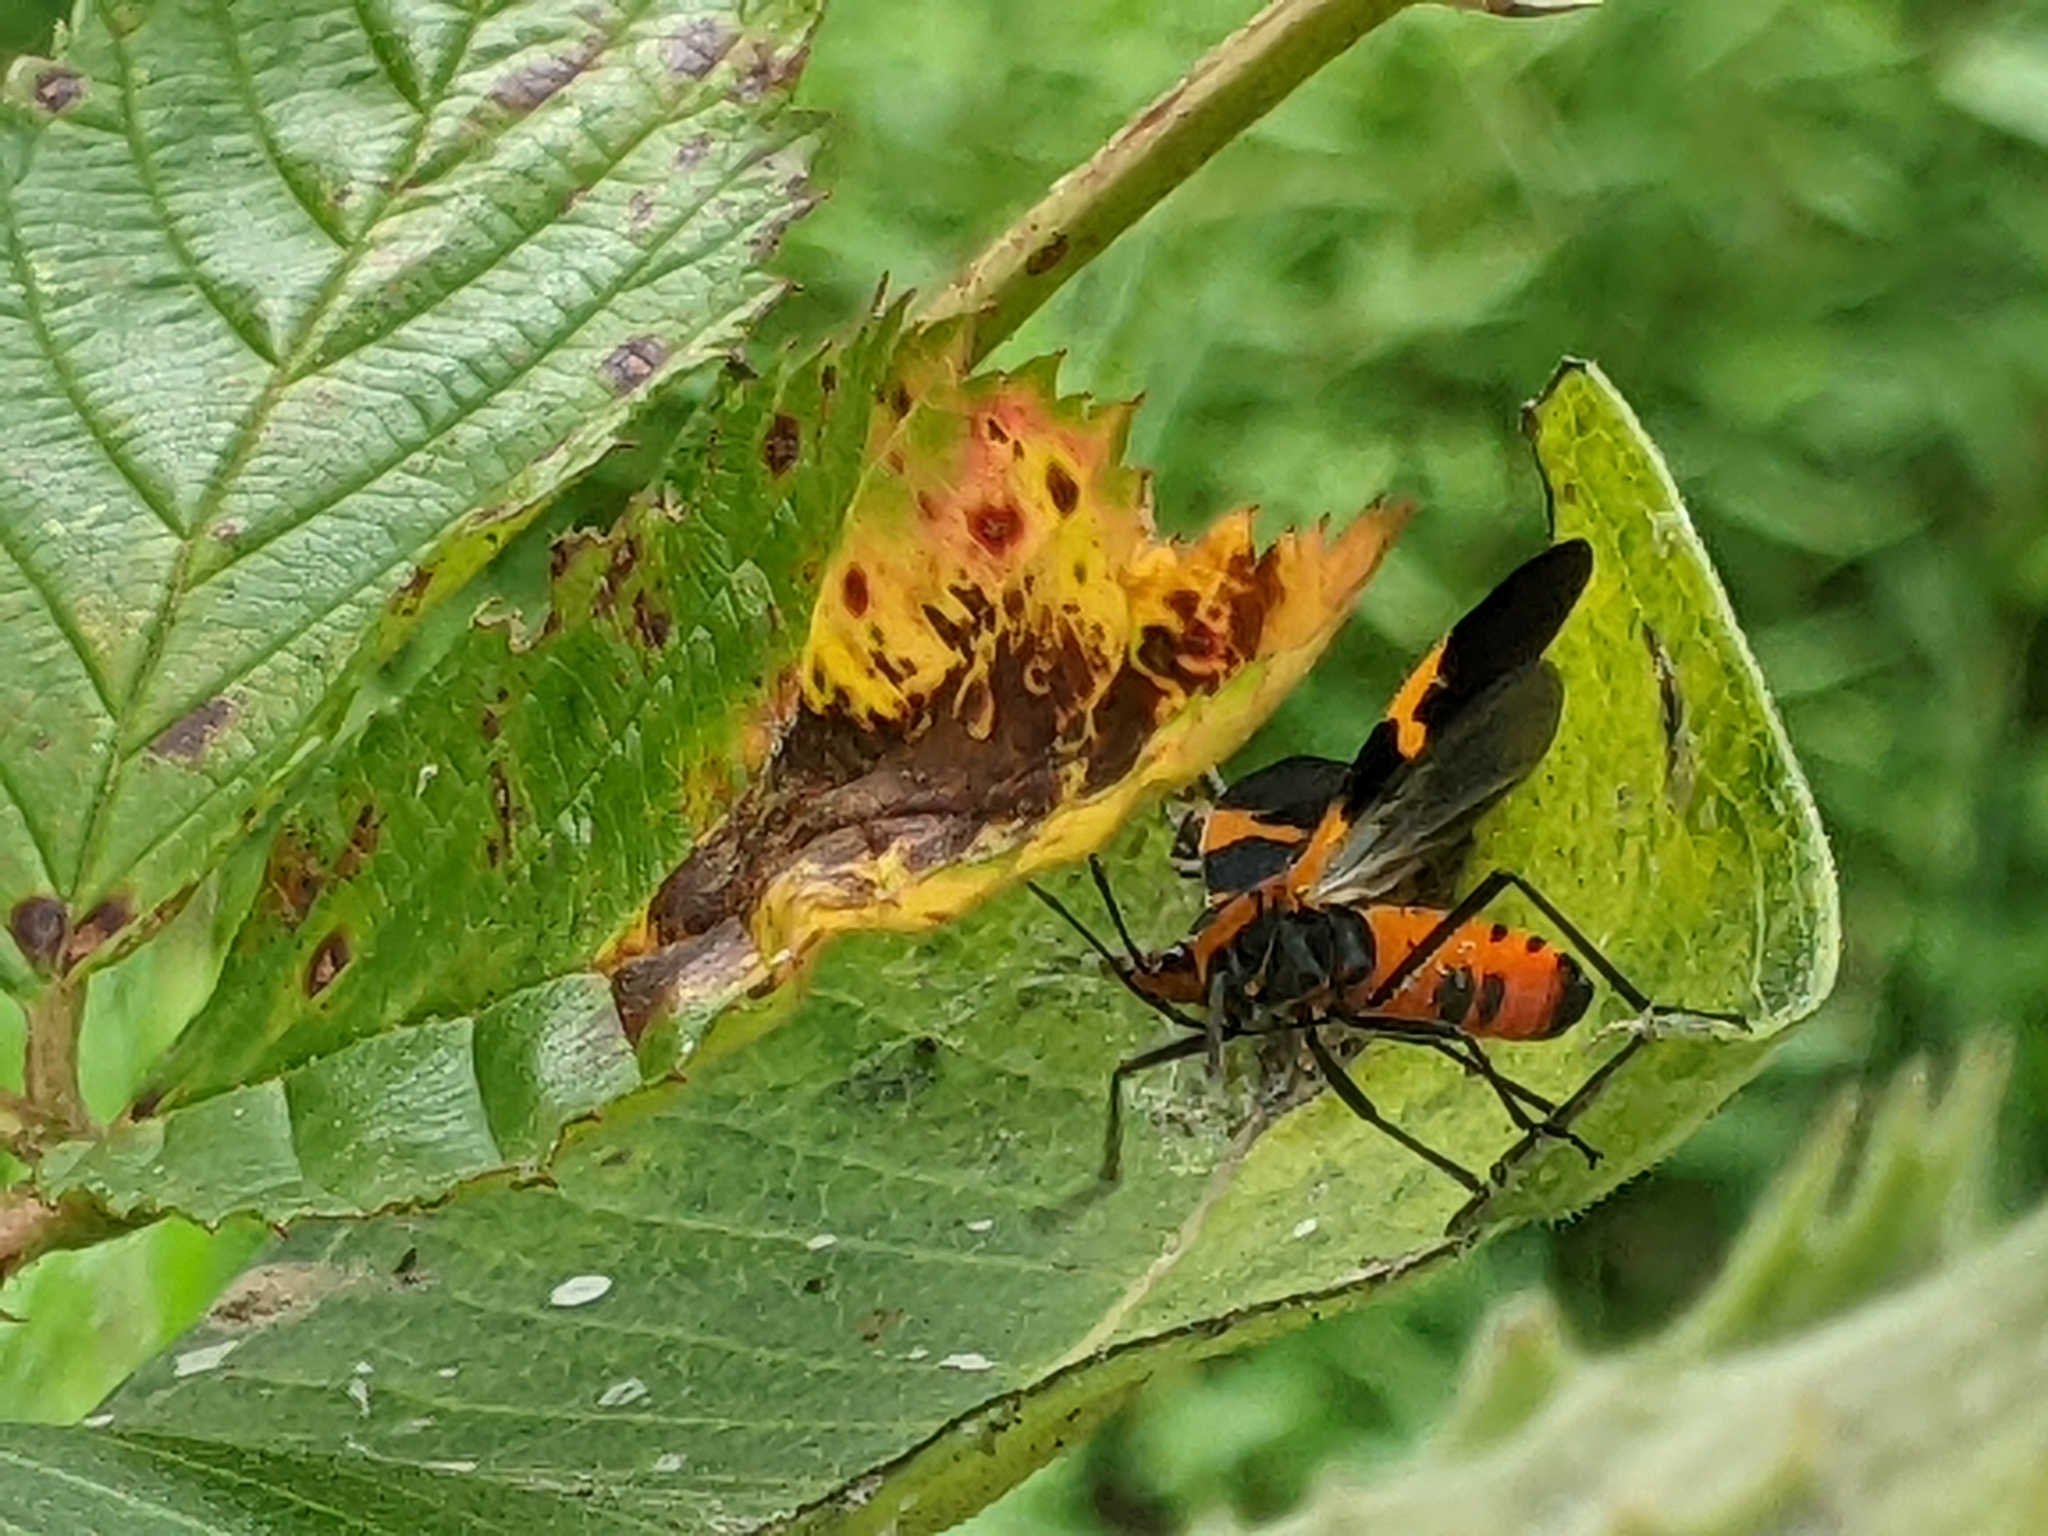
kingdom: Animalia
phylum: Arthropoda
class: Insecta
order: Hemiptera
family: Lygaeidae
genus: Oncopeltus
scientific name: Oncopeltus fasciatus
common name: Large milkweed bug
